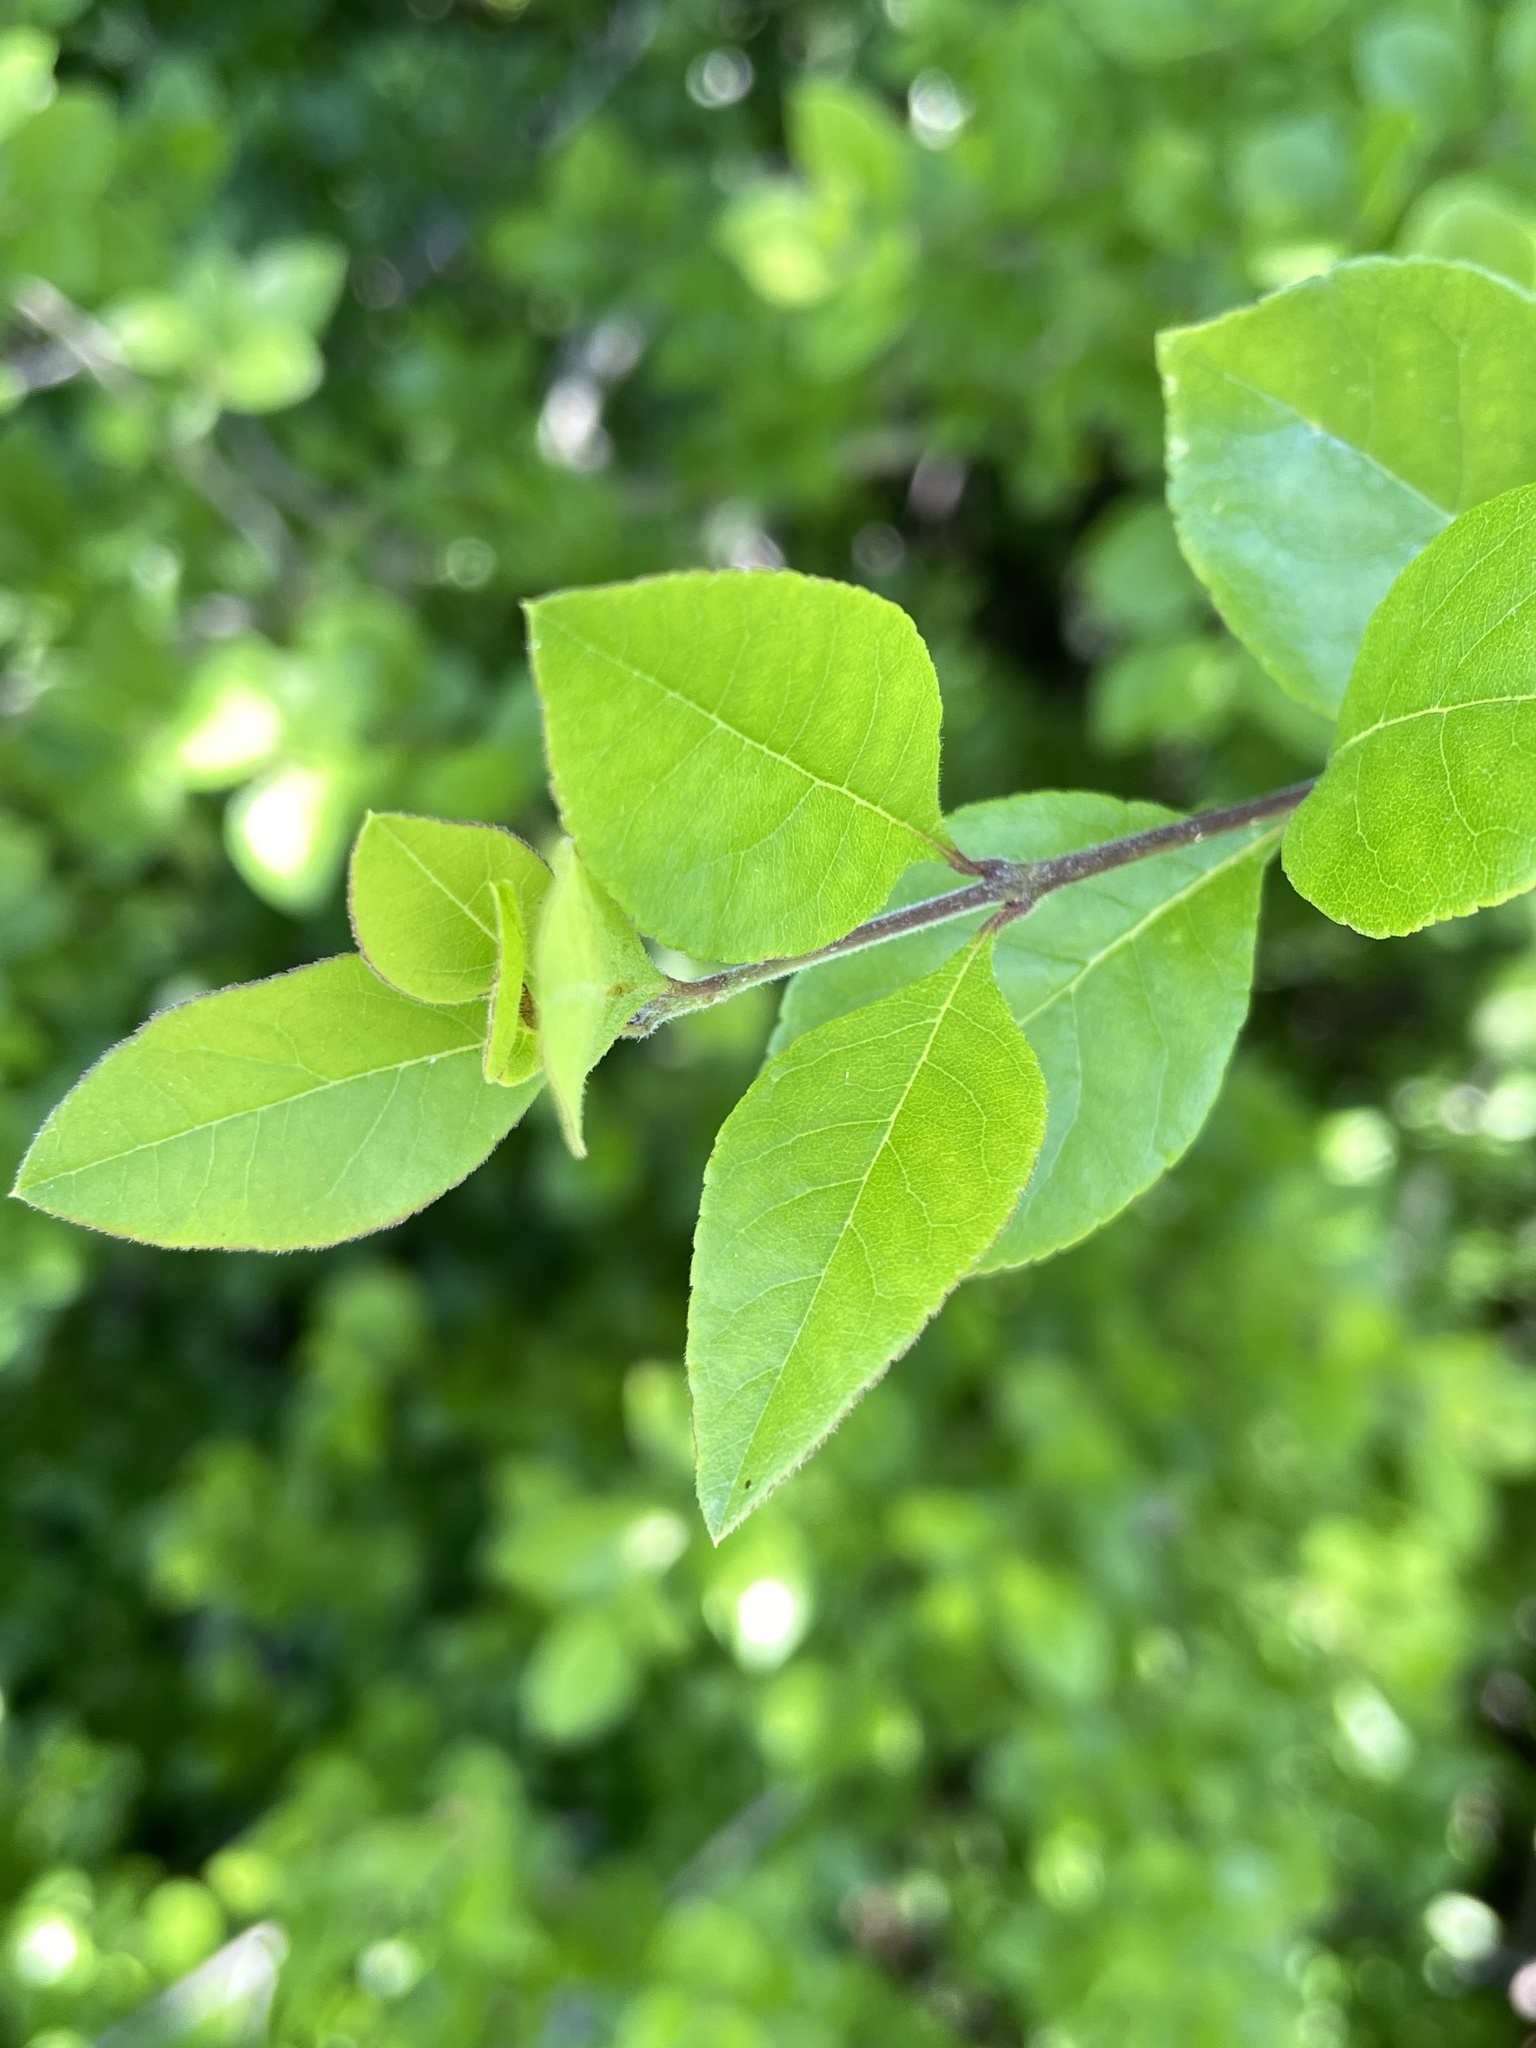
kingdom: Plantae
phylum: Tracheophyta
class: Magnoliopsida
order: Lamiales
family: Oleaceae
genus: Forestiera
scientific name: Forestiera pubescens
